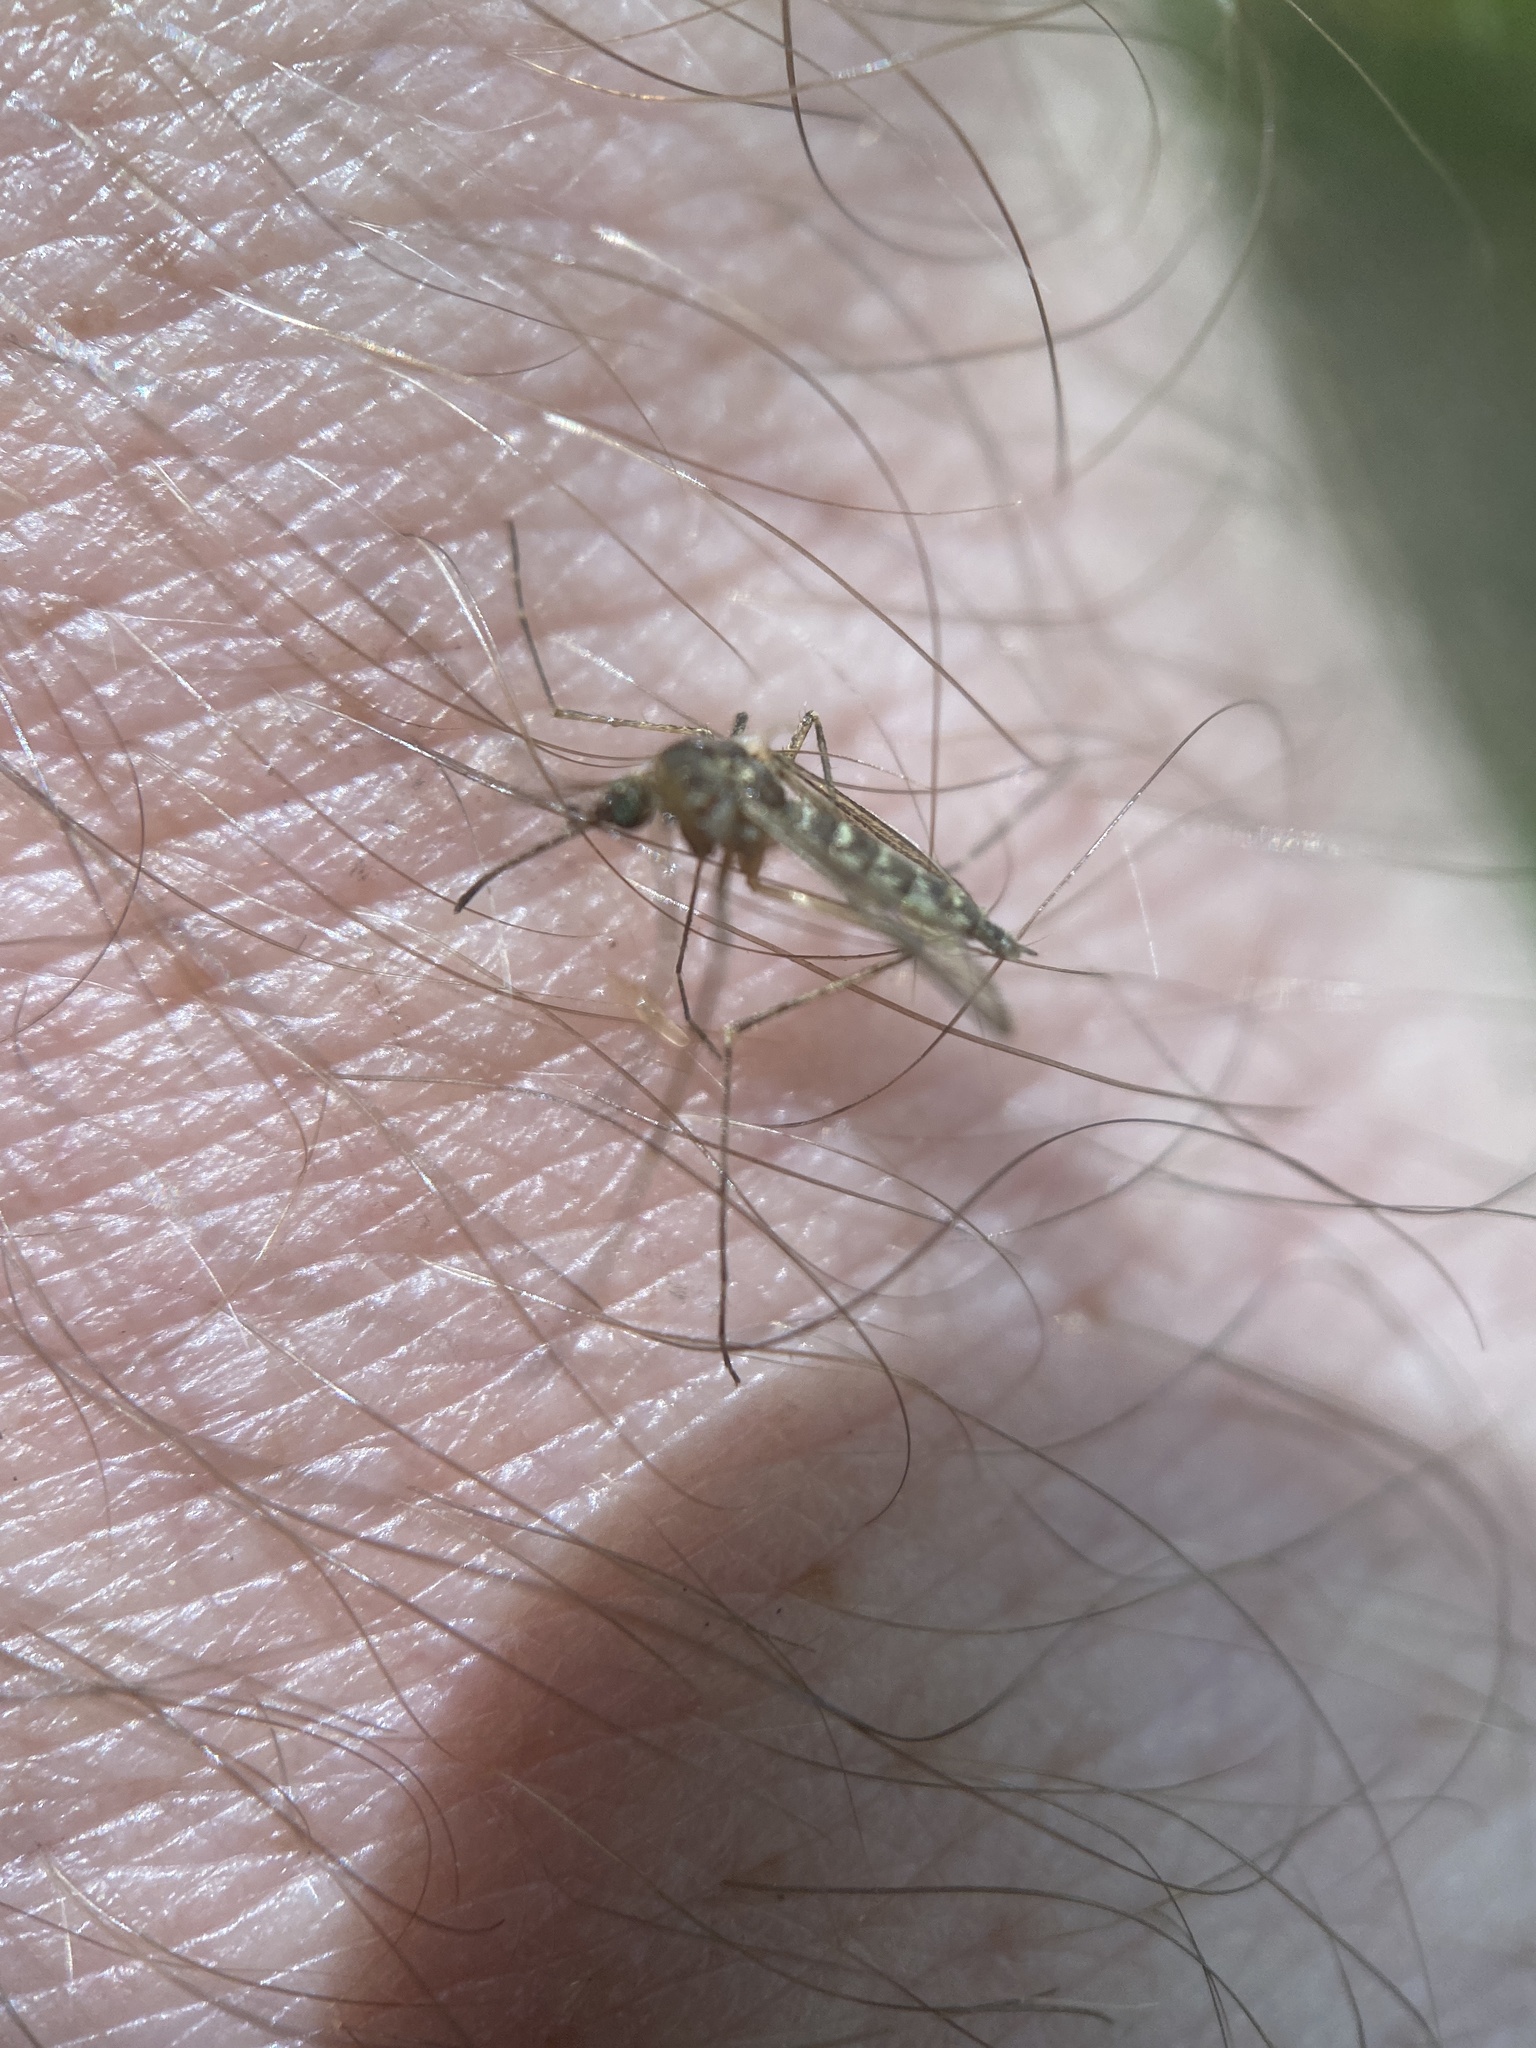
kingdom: Animalia
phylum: Arthropoda
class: Insecta
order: Diptera
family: Culicidae
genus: Aedes
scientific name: Aedes vexans
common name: Inland floodwater mosquito
